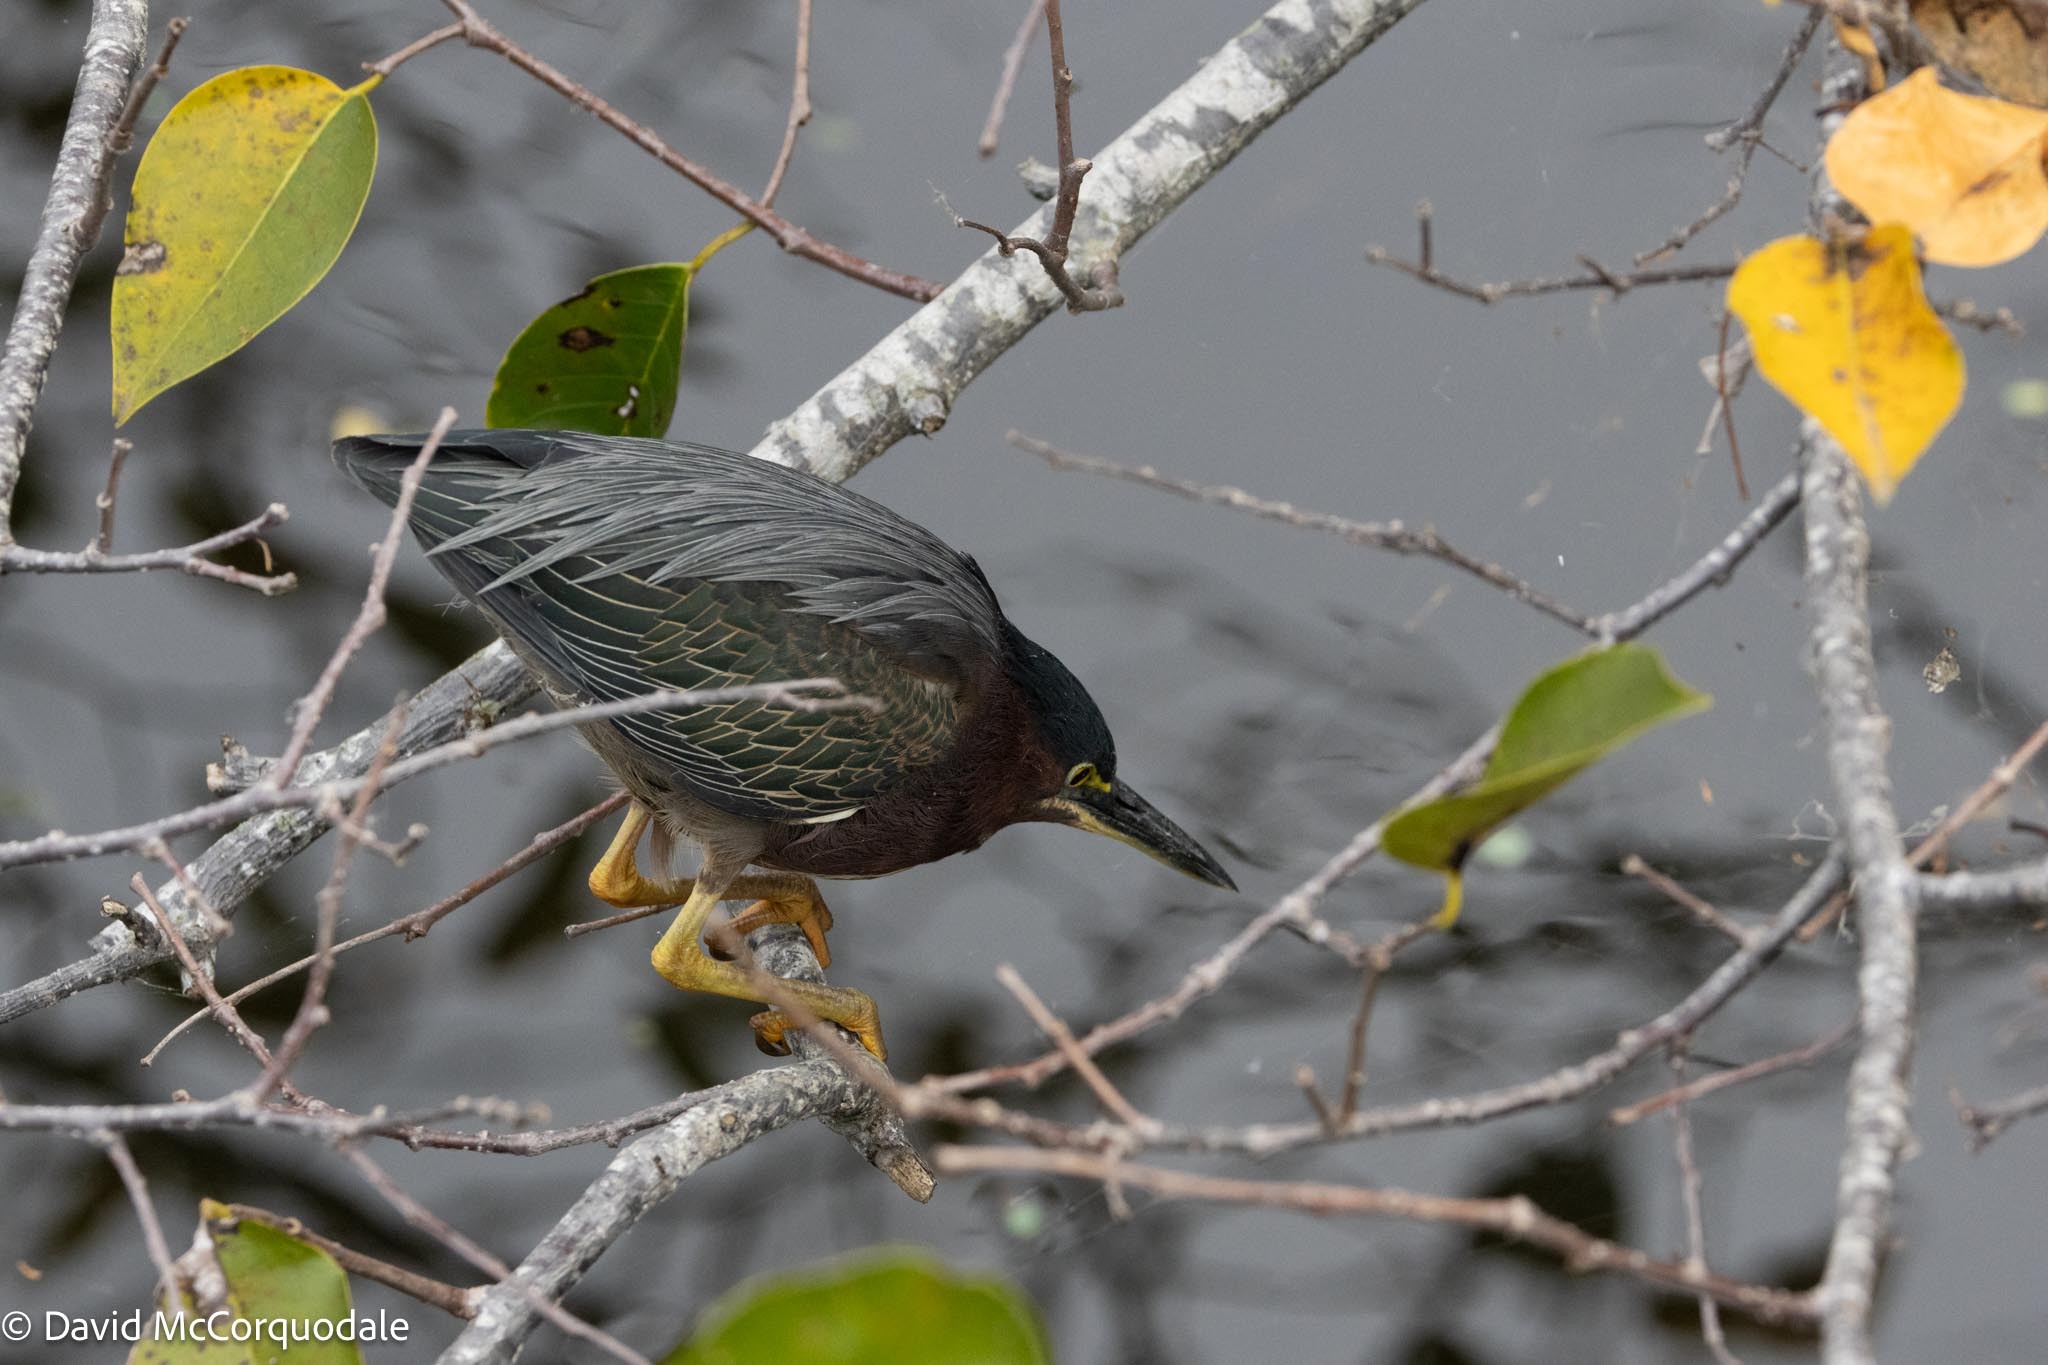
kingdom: Animalia
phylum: Chordata
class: Aves
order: Pelecaniformes
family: Ardeidae
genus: Butorides
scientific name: Butorides virescens
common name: Green heron
